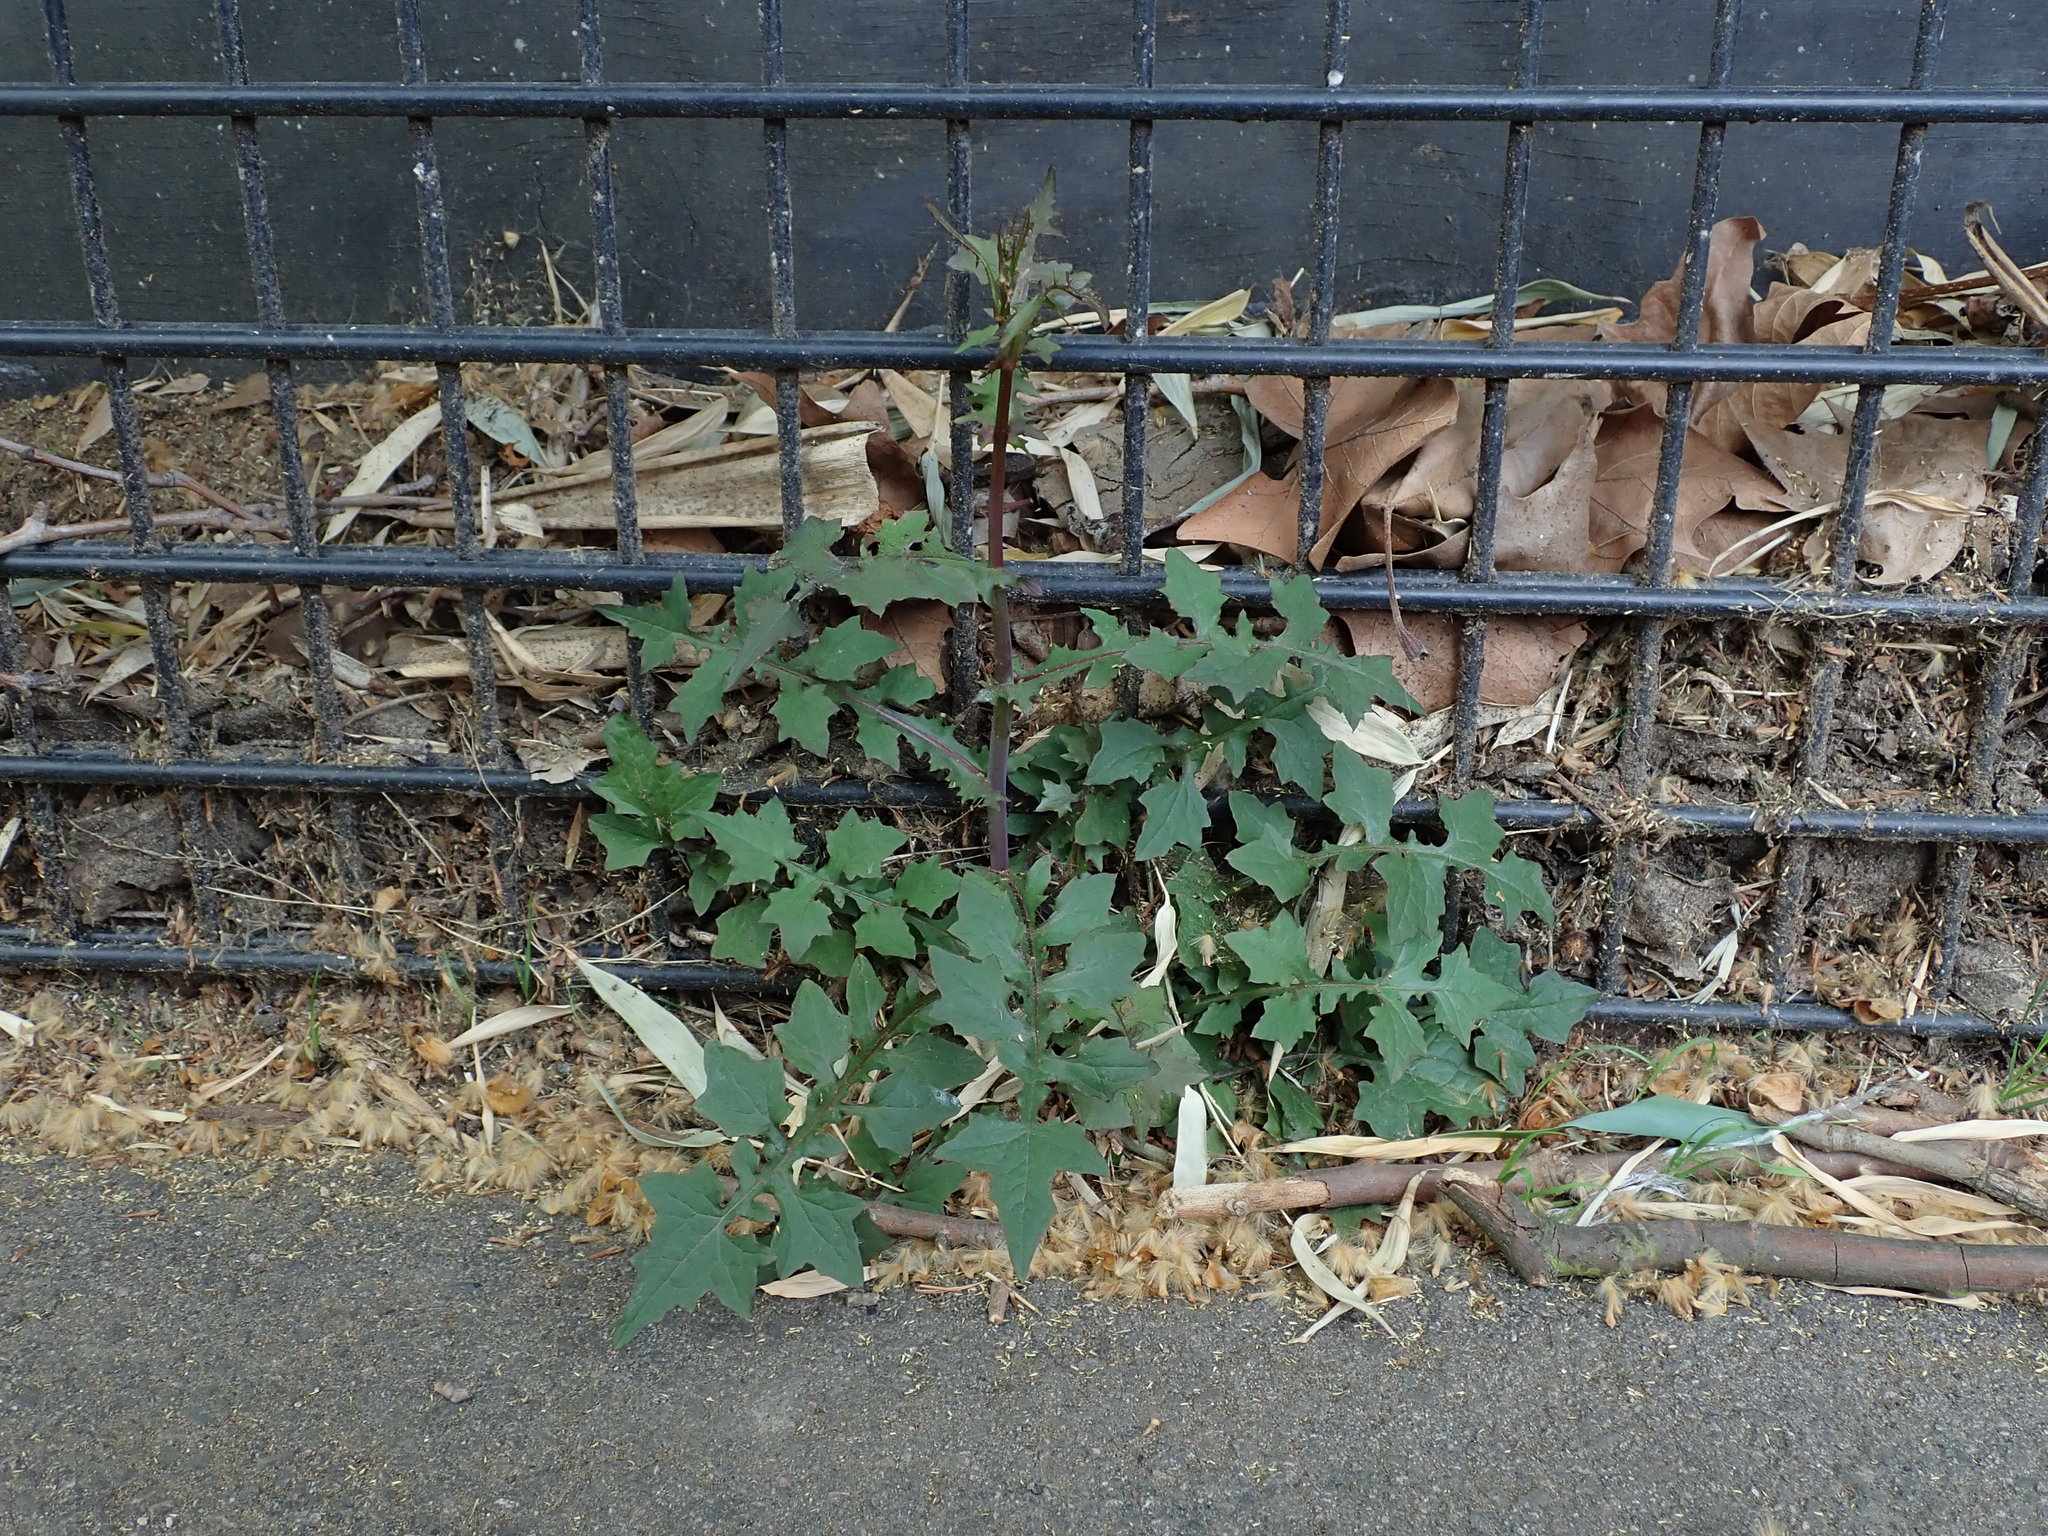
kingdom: Plantae
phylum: Tracheophyta
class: Magnoliopsida
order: Asterales
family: Asteraceae
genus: Mycelis
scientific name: Mycelis muralis
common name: Wall lettuce
